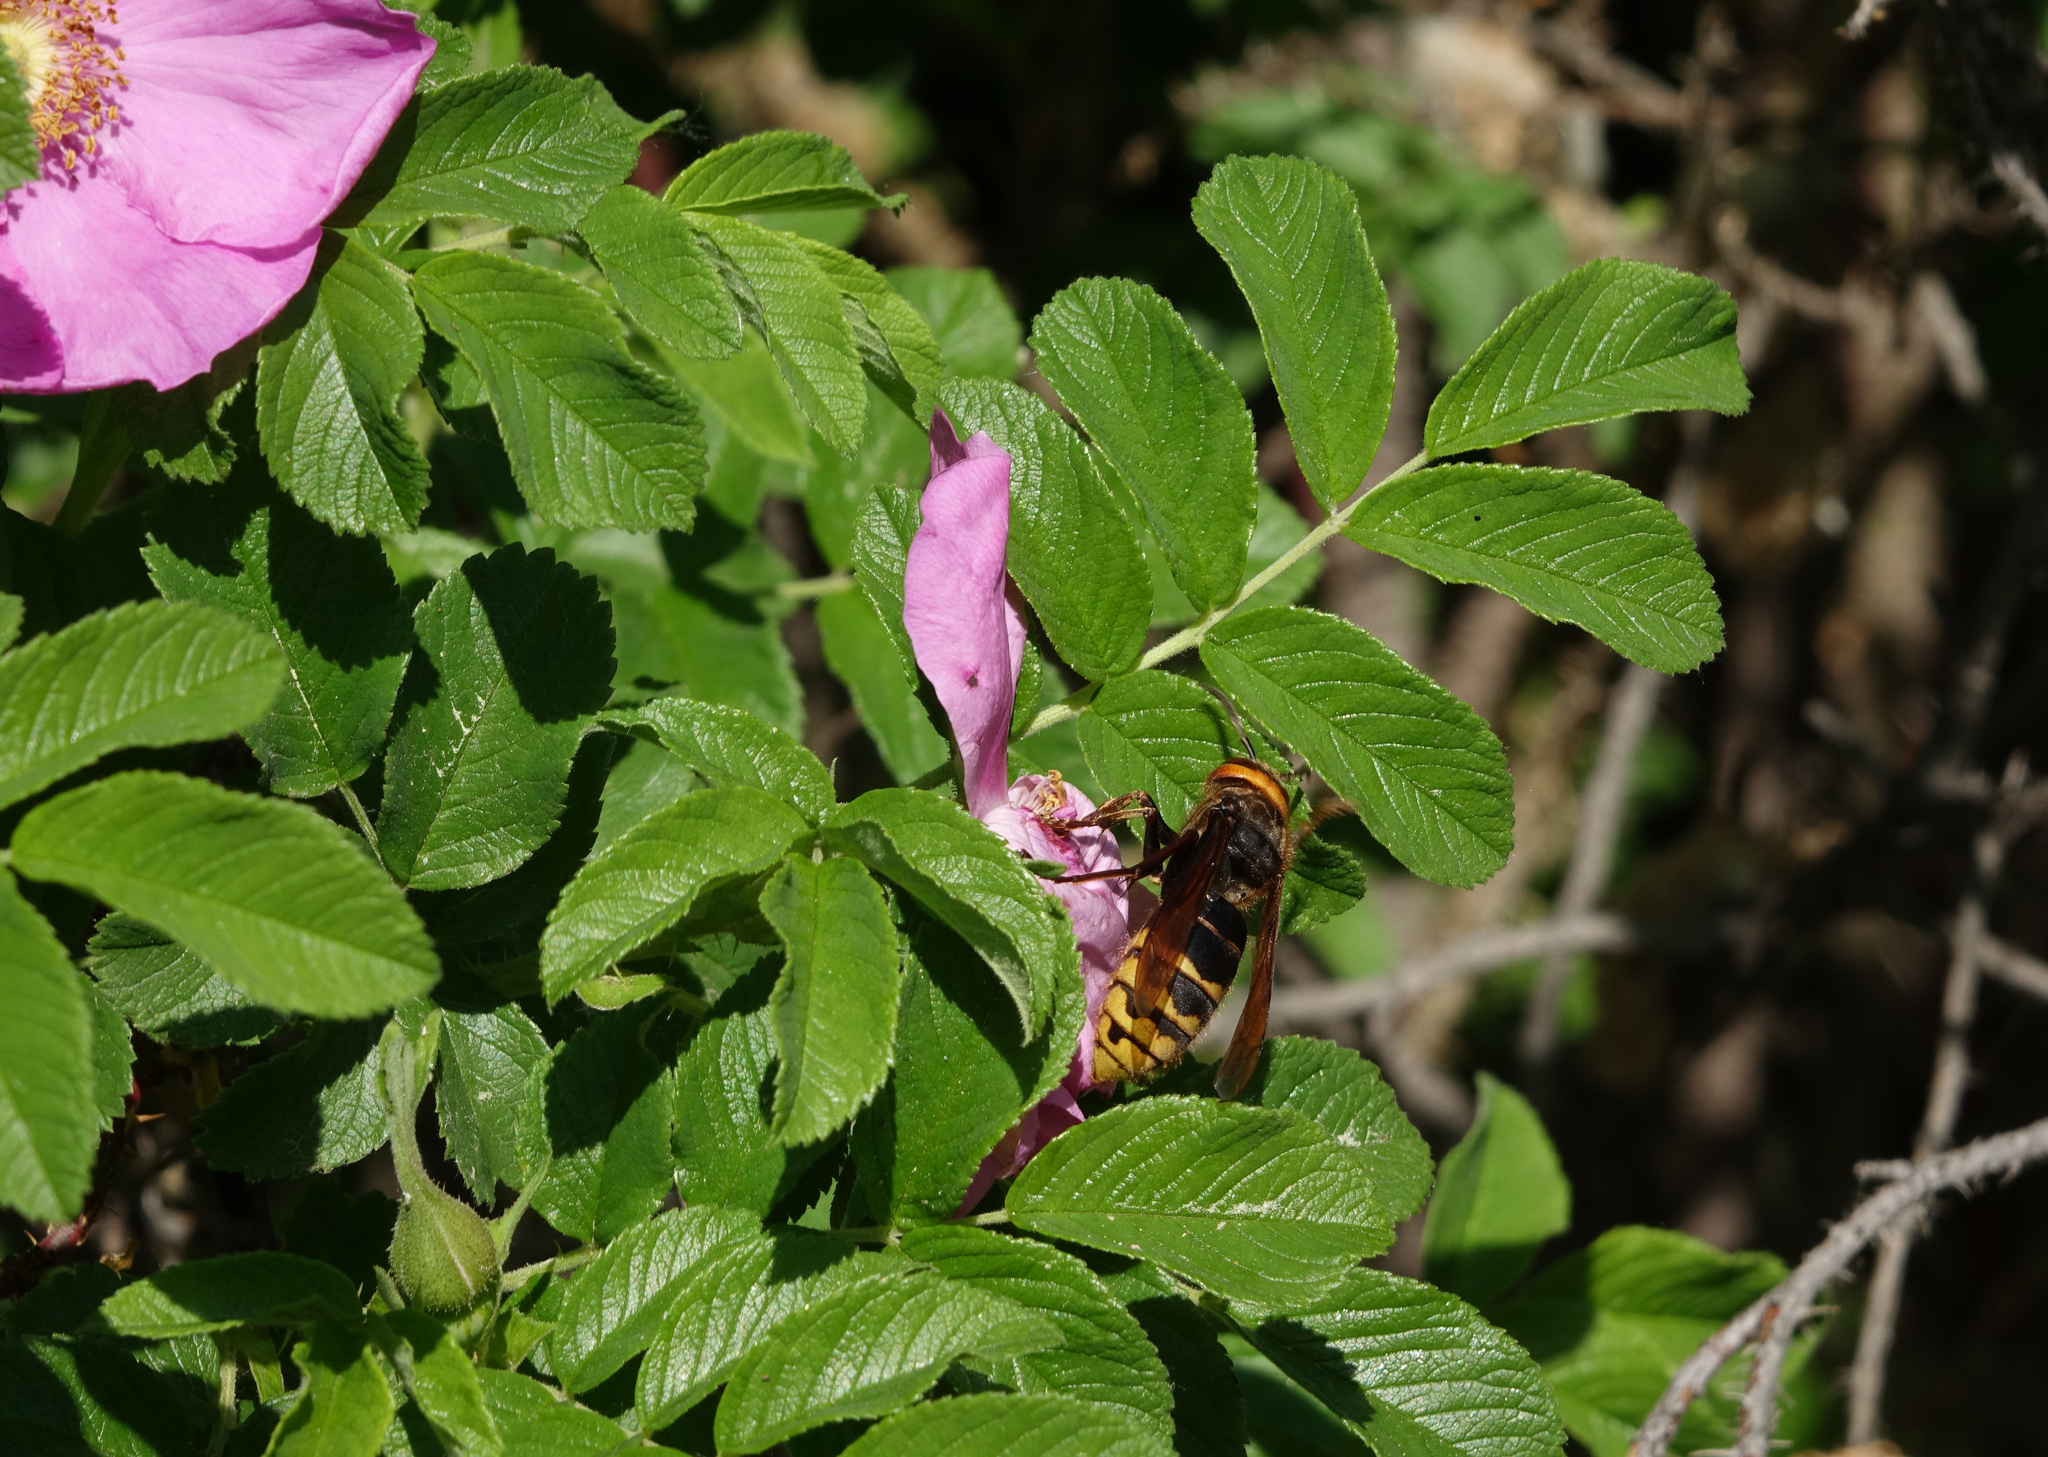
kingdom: Plantae
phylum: Tracheophyta
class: Magnoliopsida
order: Rosales
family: Rosaceae
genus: Rosa
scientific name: Rosa rugosa
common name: Japanese rose
